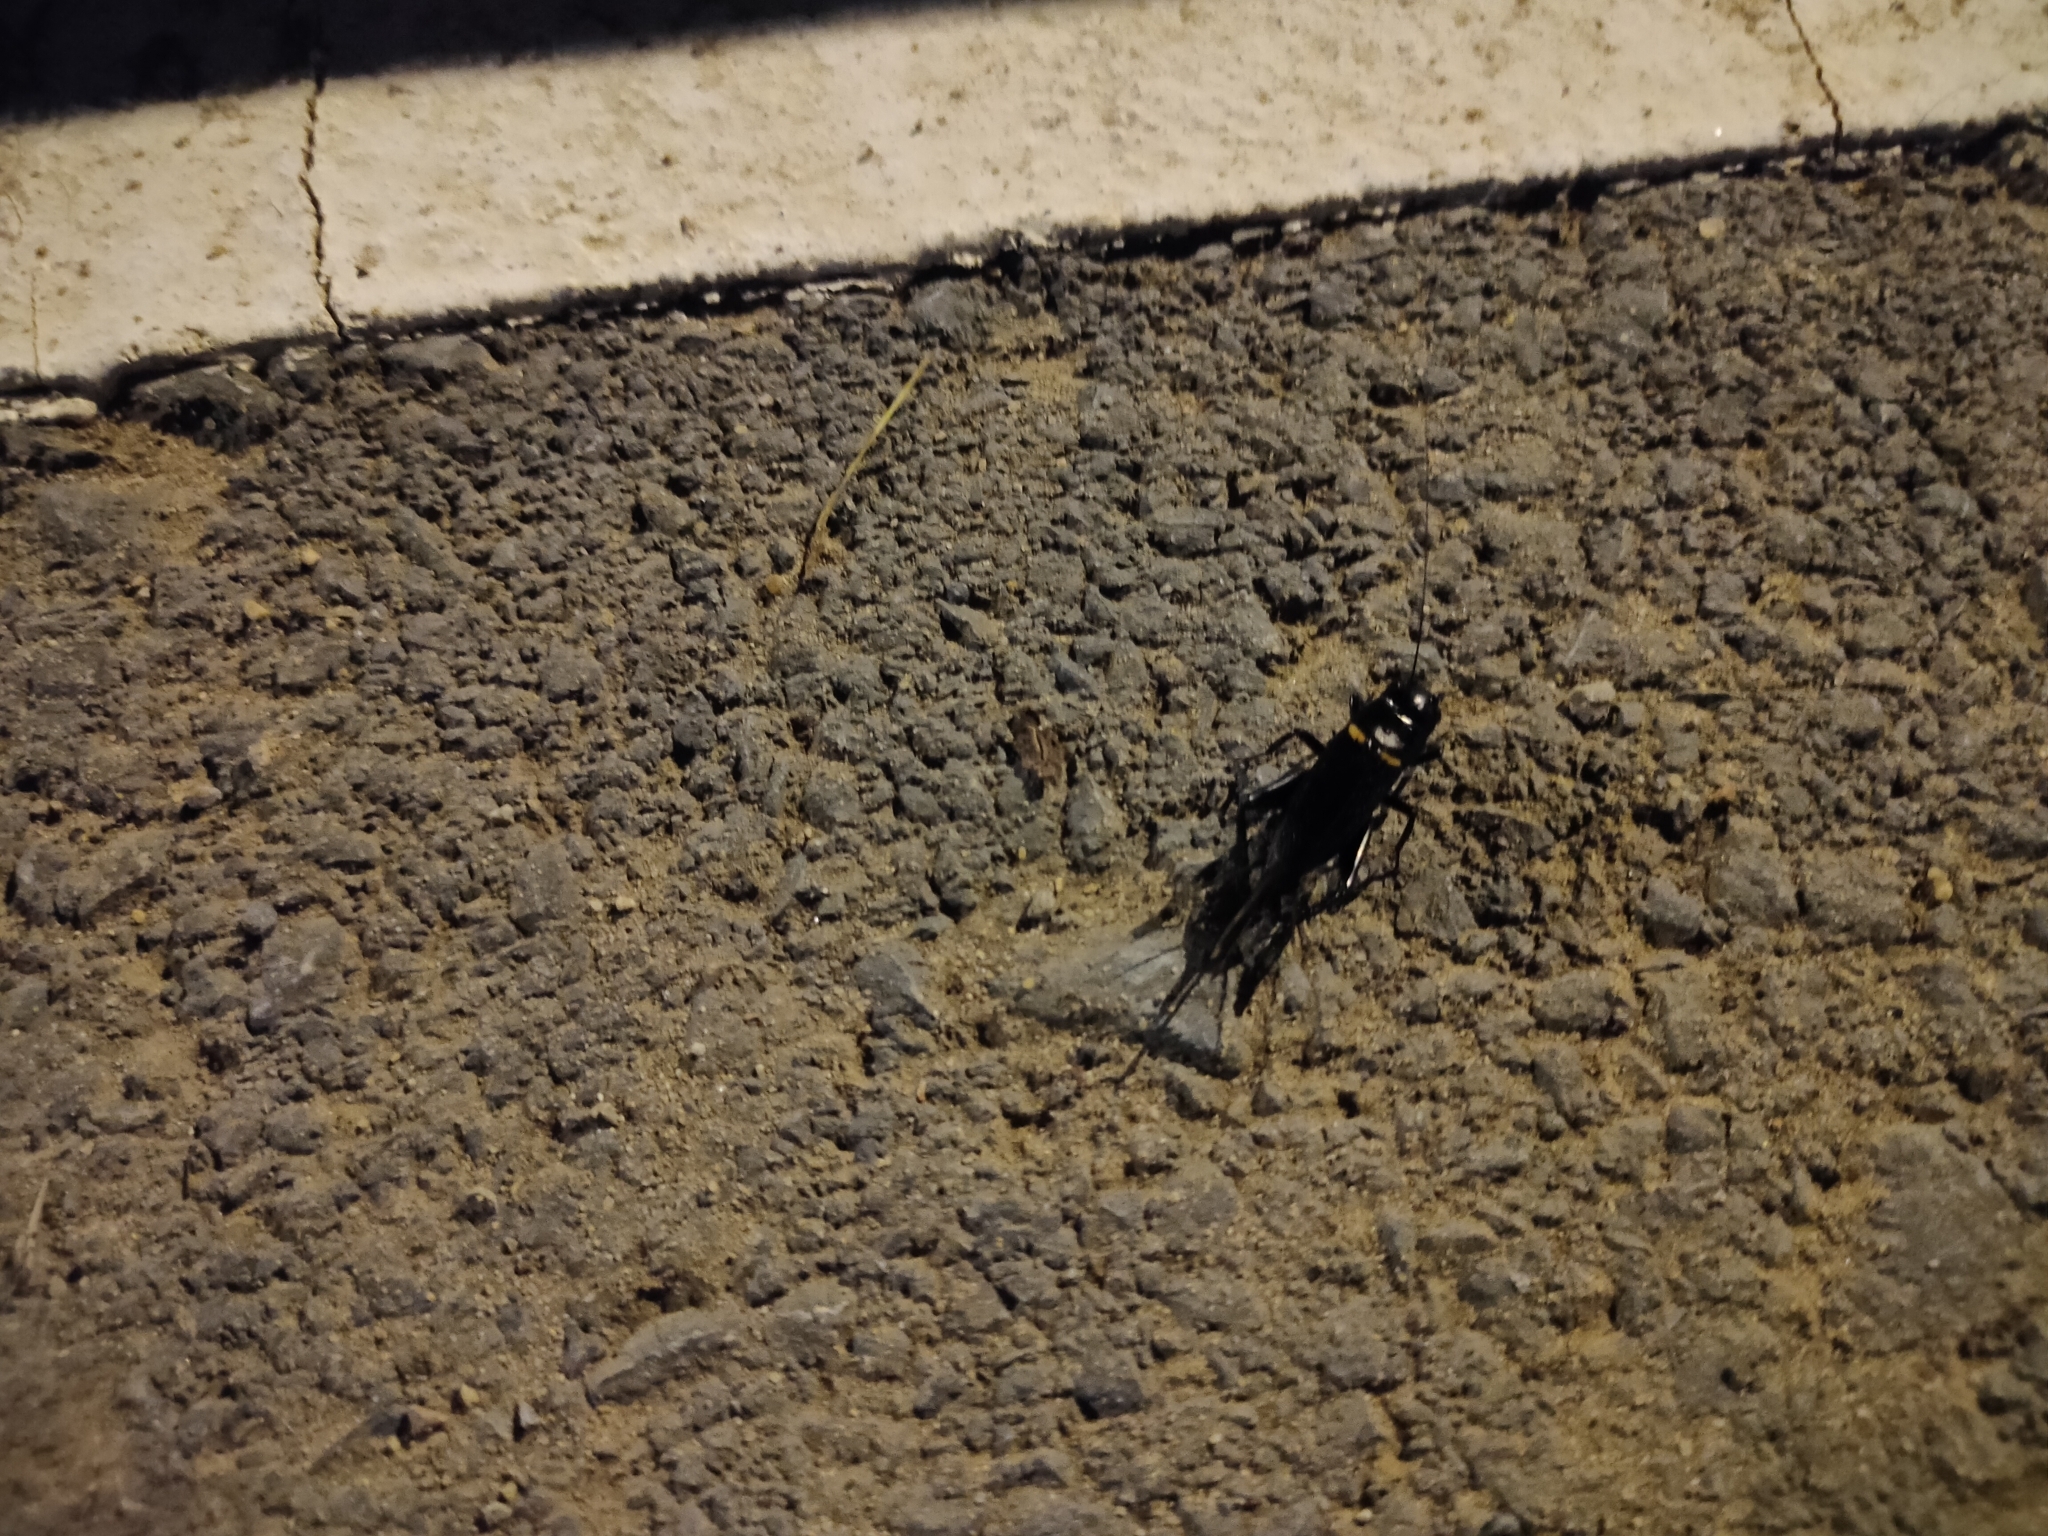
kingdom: Animalia
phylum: Arthropoda
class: Insecta
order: Orthoptera
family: Gryllidae
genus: Gryllus
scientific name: Gryllus bimaculatus
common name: Two-spotted cricket
